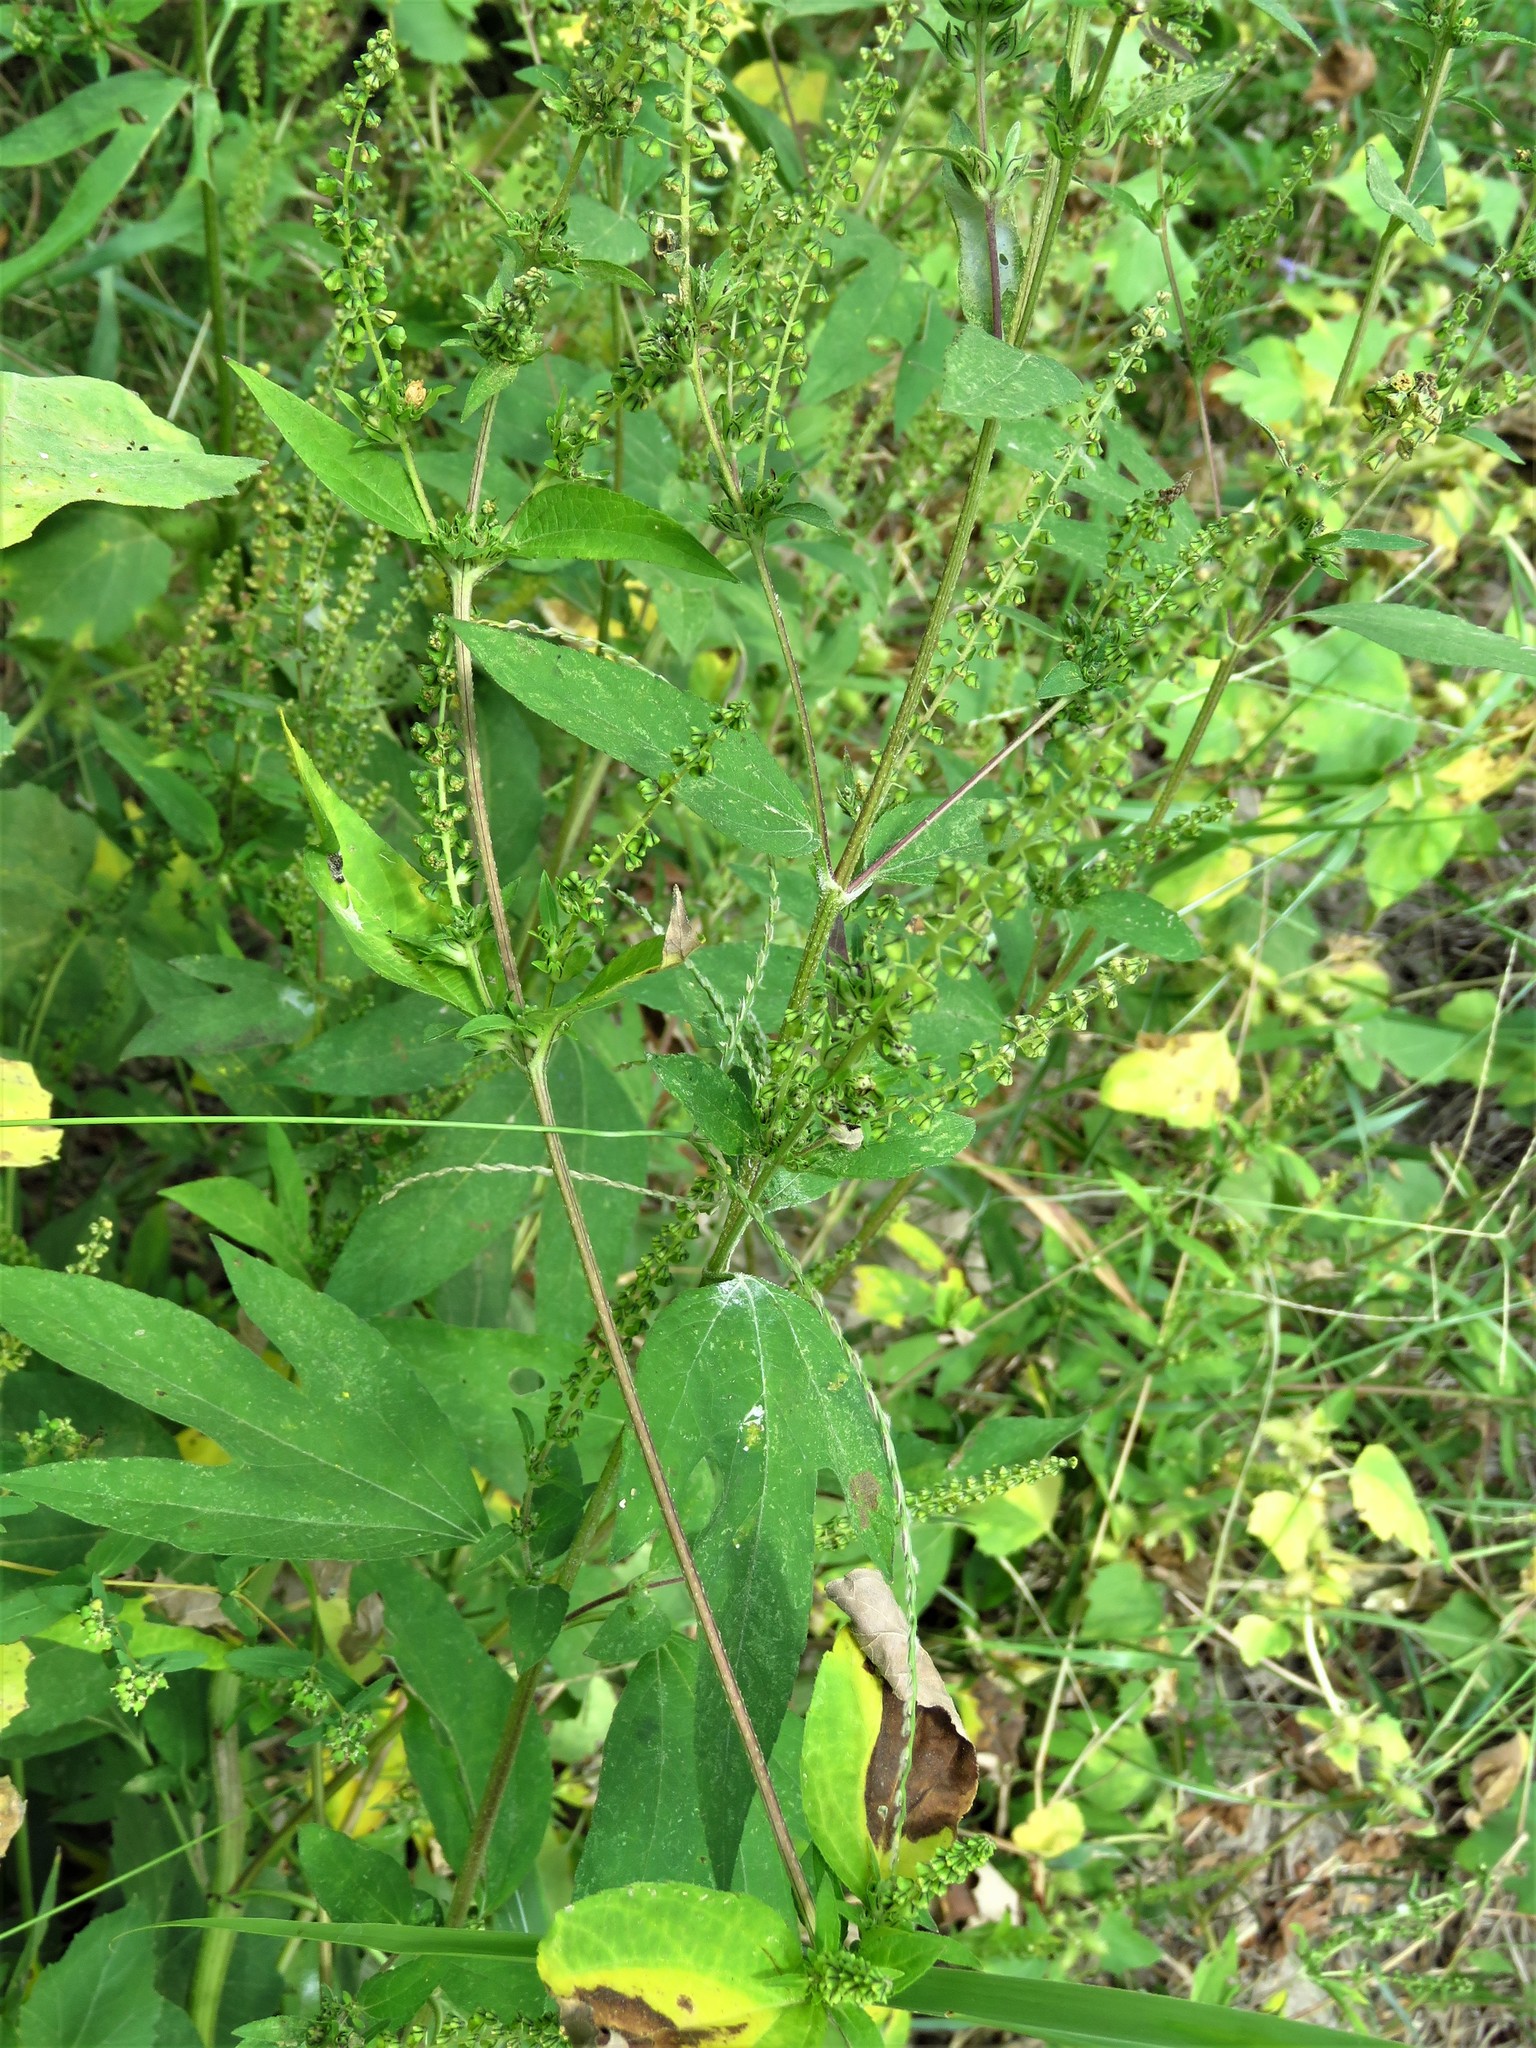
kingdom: Plantae
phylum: Tracheophyta
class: Magnoliopsida
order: Asterales
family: Asteraceae
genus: Ambrosia
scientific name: Ambrosia trifida
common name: Giant ragweed
